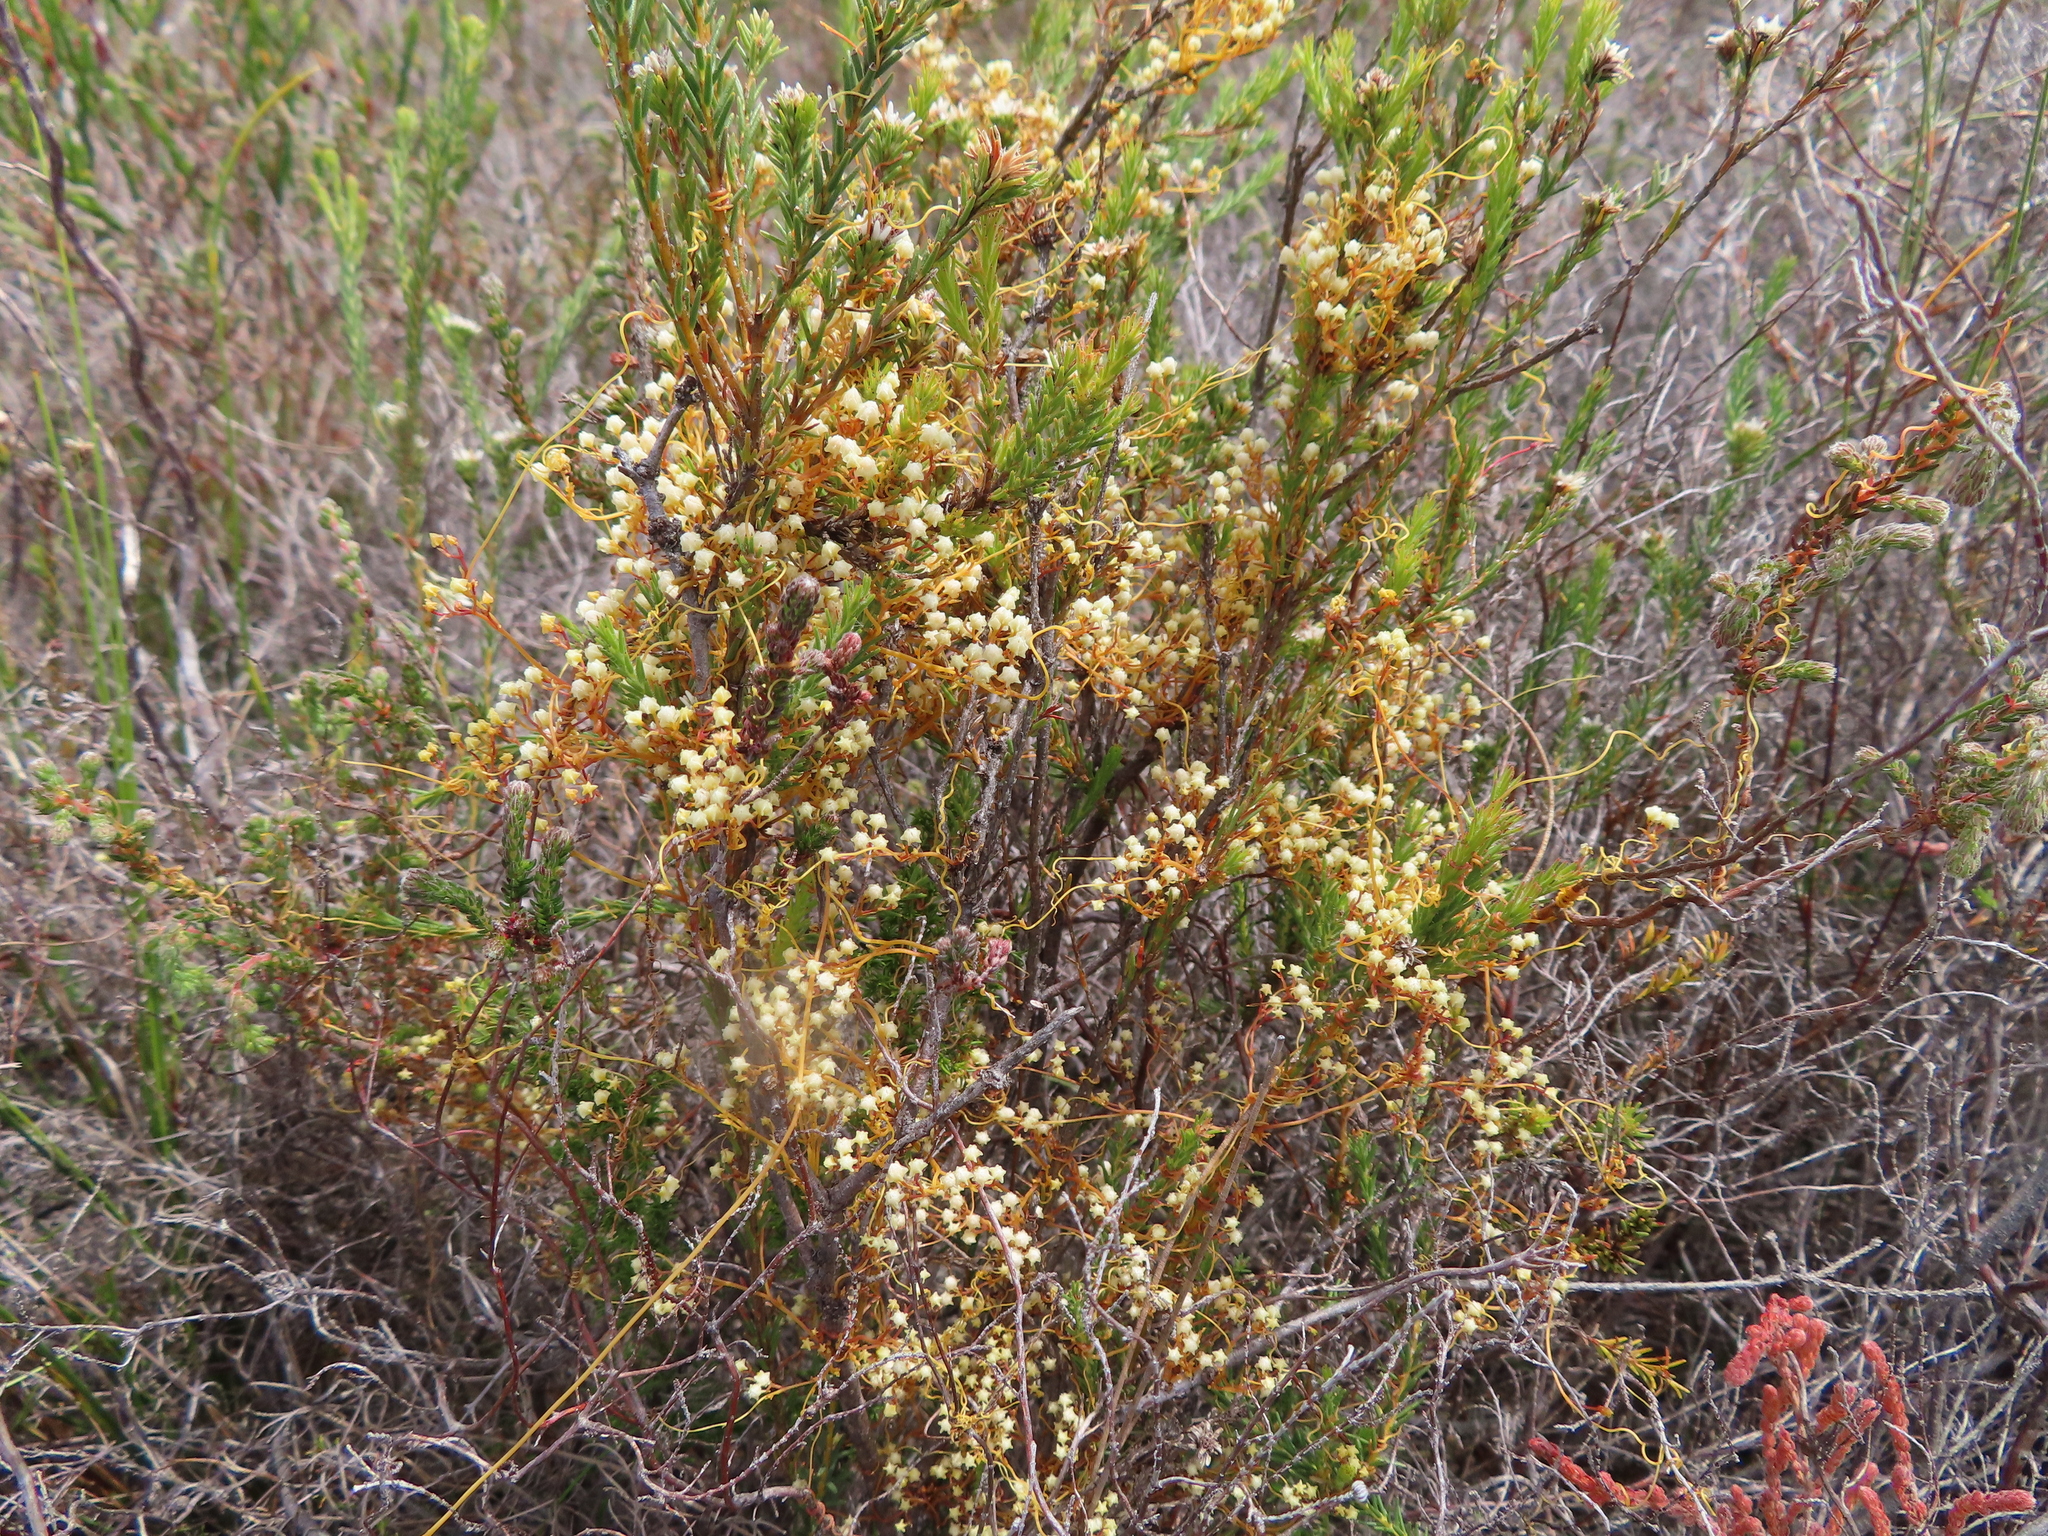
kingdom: Plantae
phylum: Tracheophyta
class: Magnoliopsida
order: Solanales
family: Convolvulaceae
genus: Cuscuta
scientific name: Cuscuta angulata
